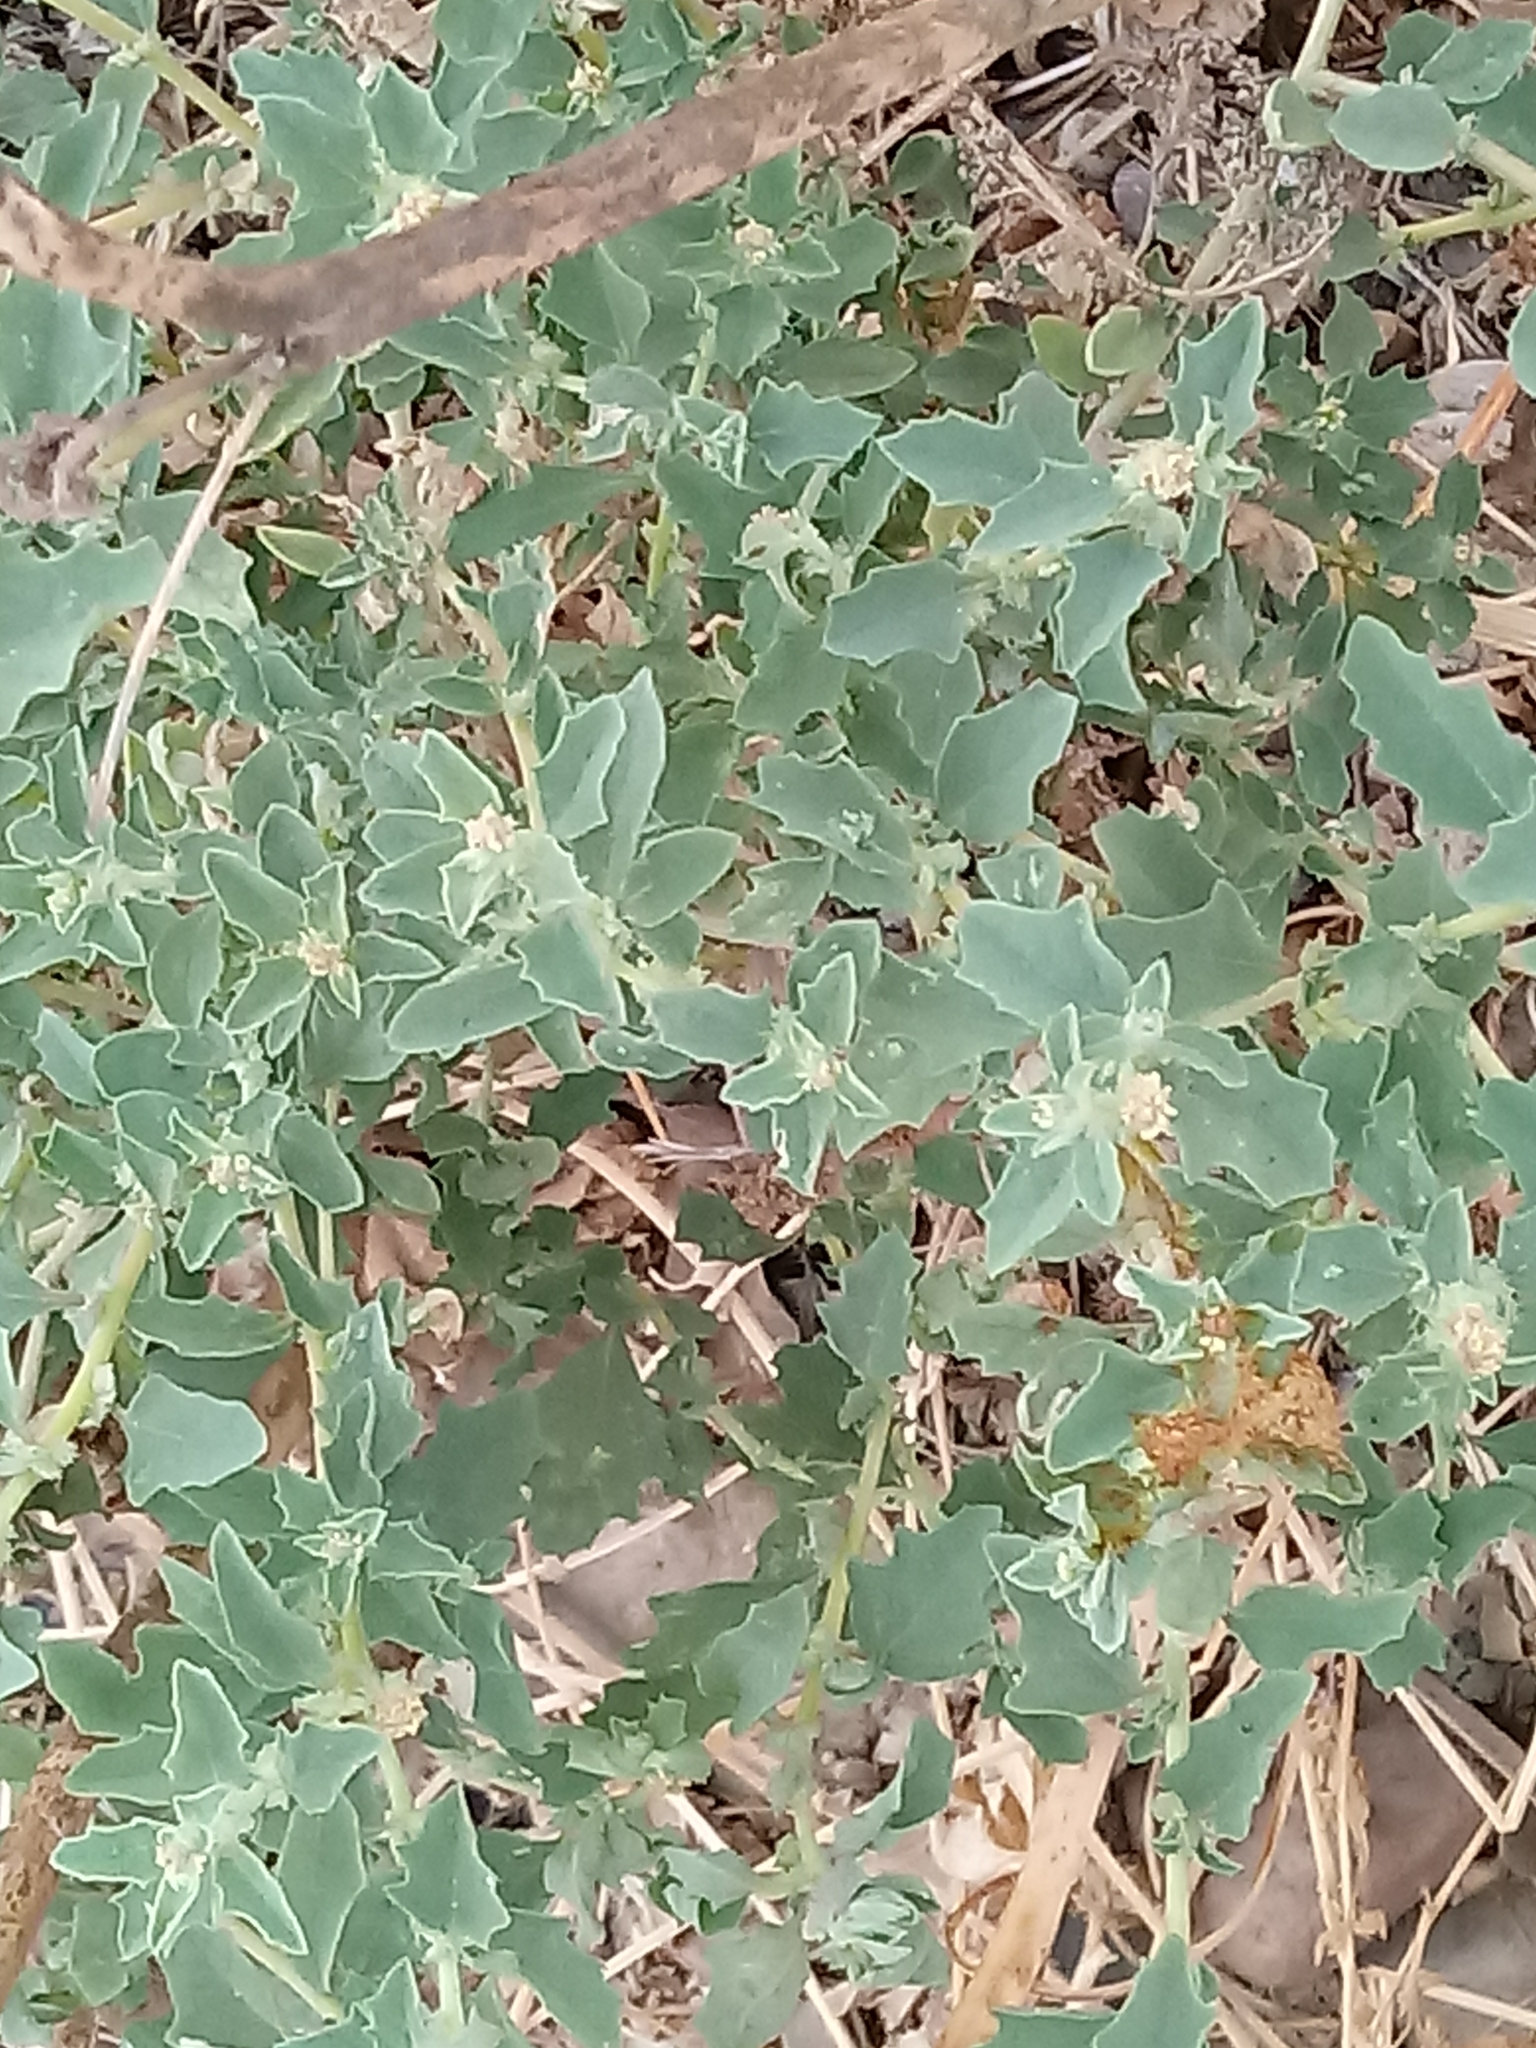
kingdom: Plantae
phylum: Tracheophyta
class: Magnoliopsida
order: Caryophyllales
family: Amaranthaceae
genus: Atriplex
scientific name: Atriplex suberecta
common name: Australian orache
